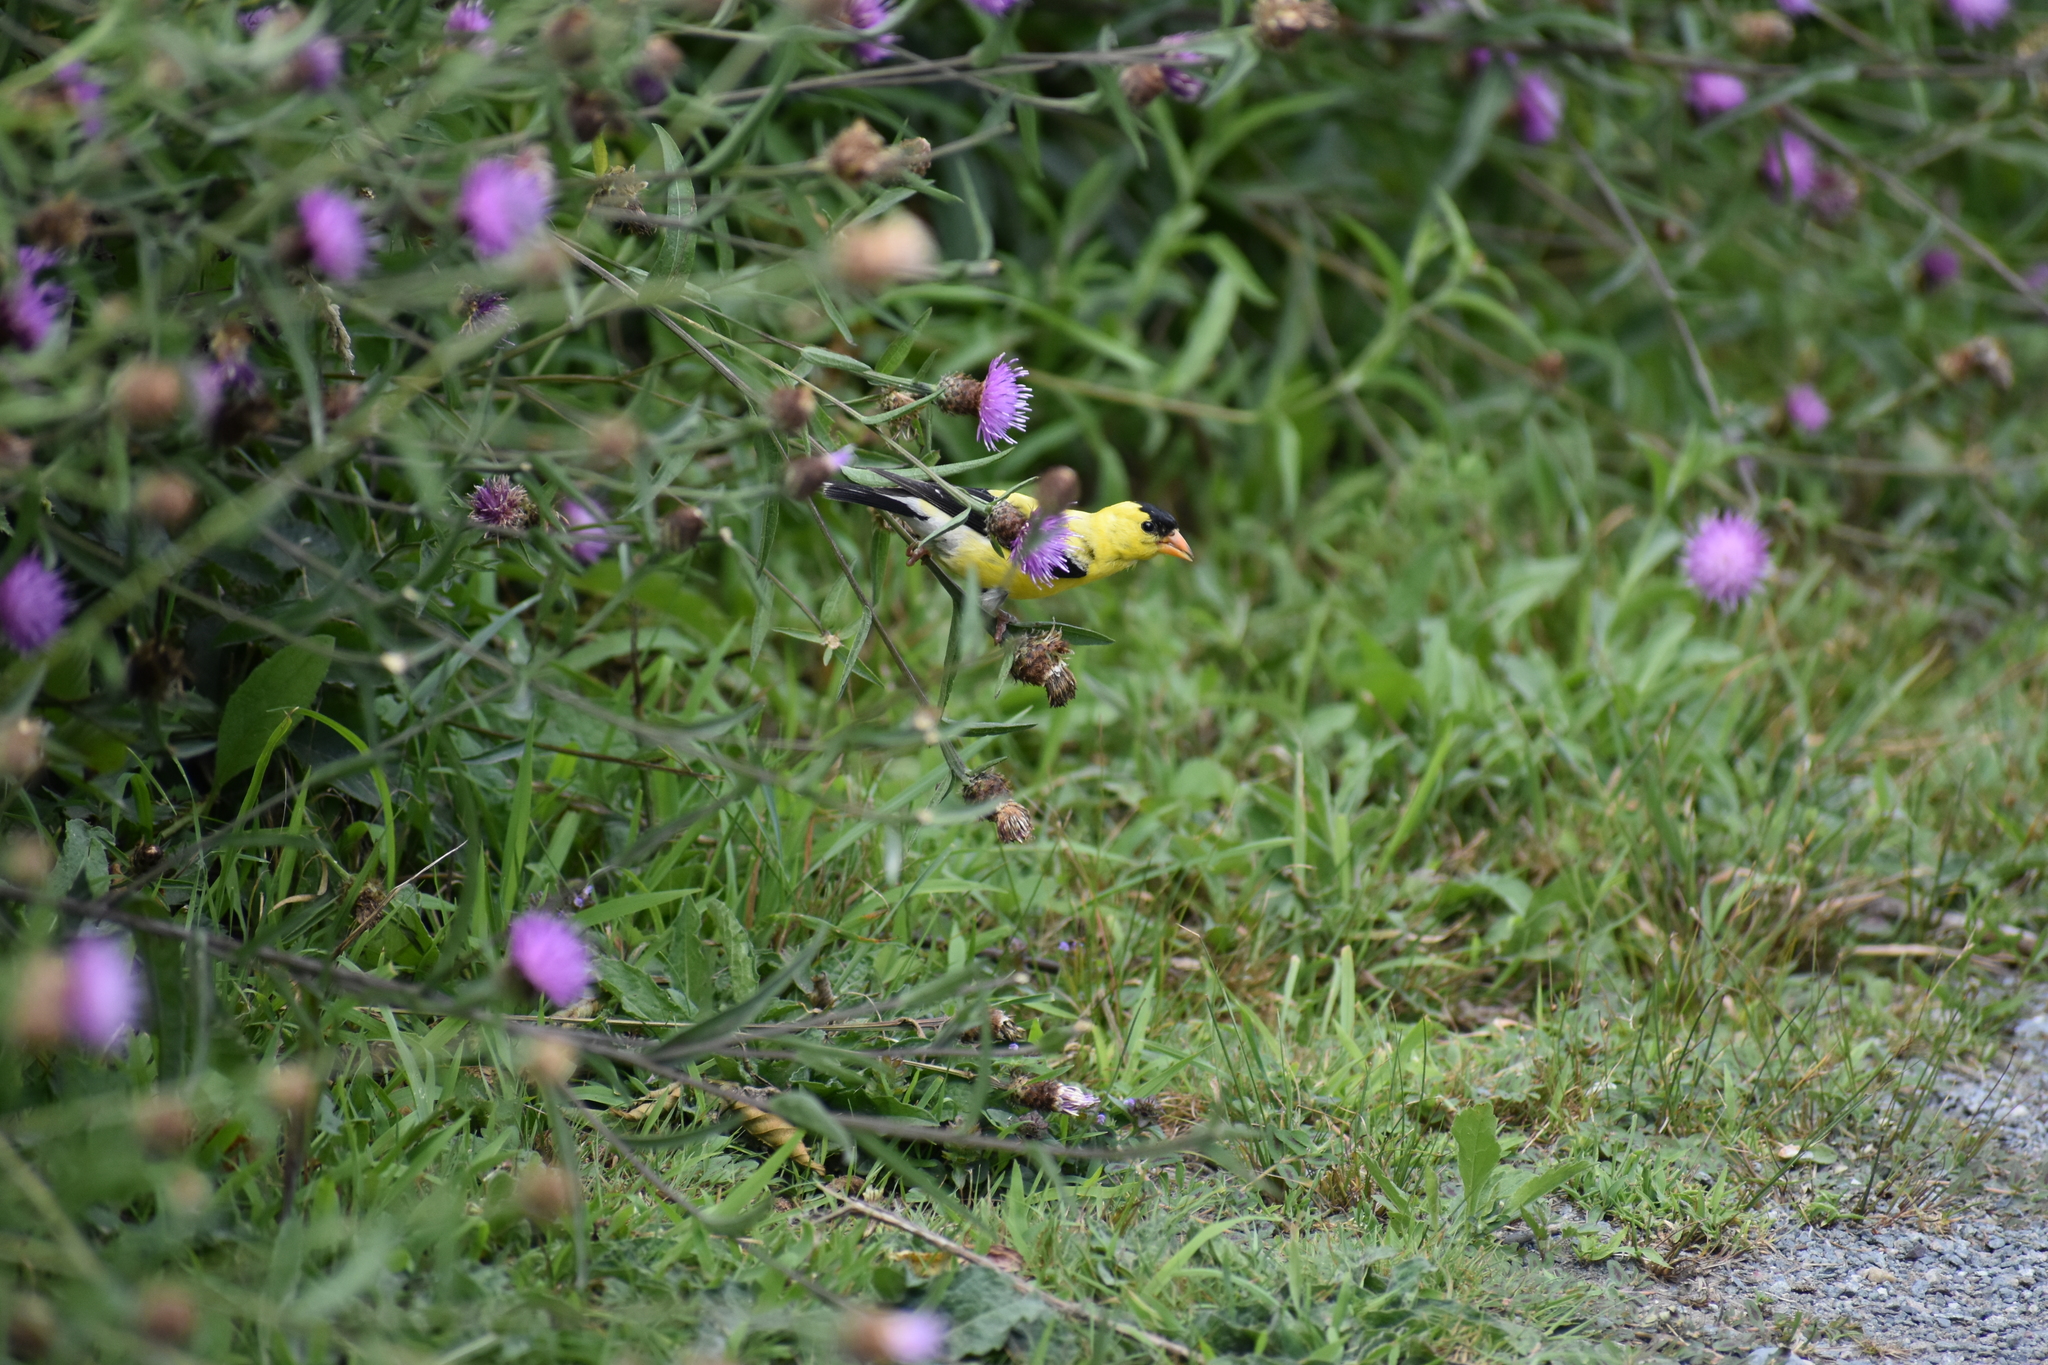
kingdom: Animalia
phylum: Chordata
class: Aves
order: Passeriformes
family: Fringillidae
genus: Spinus
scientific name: Spinus tristis
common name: American goldfinch
